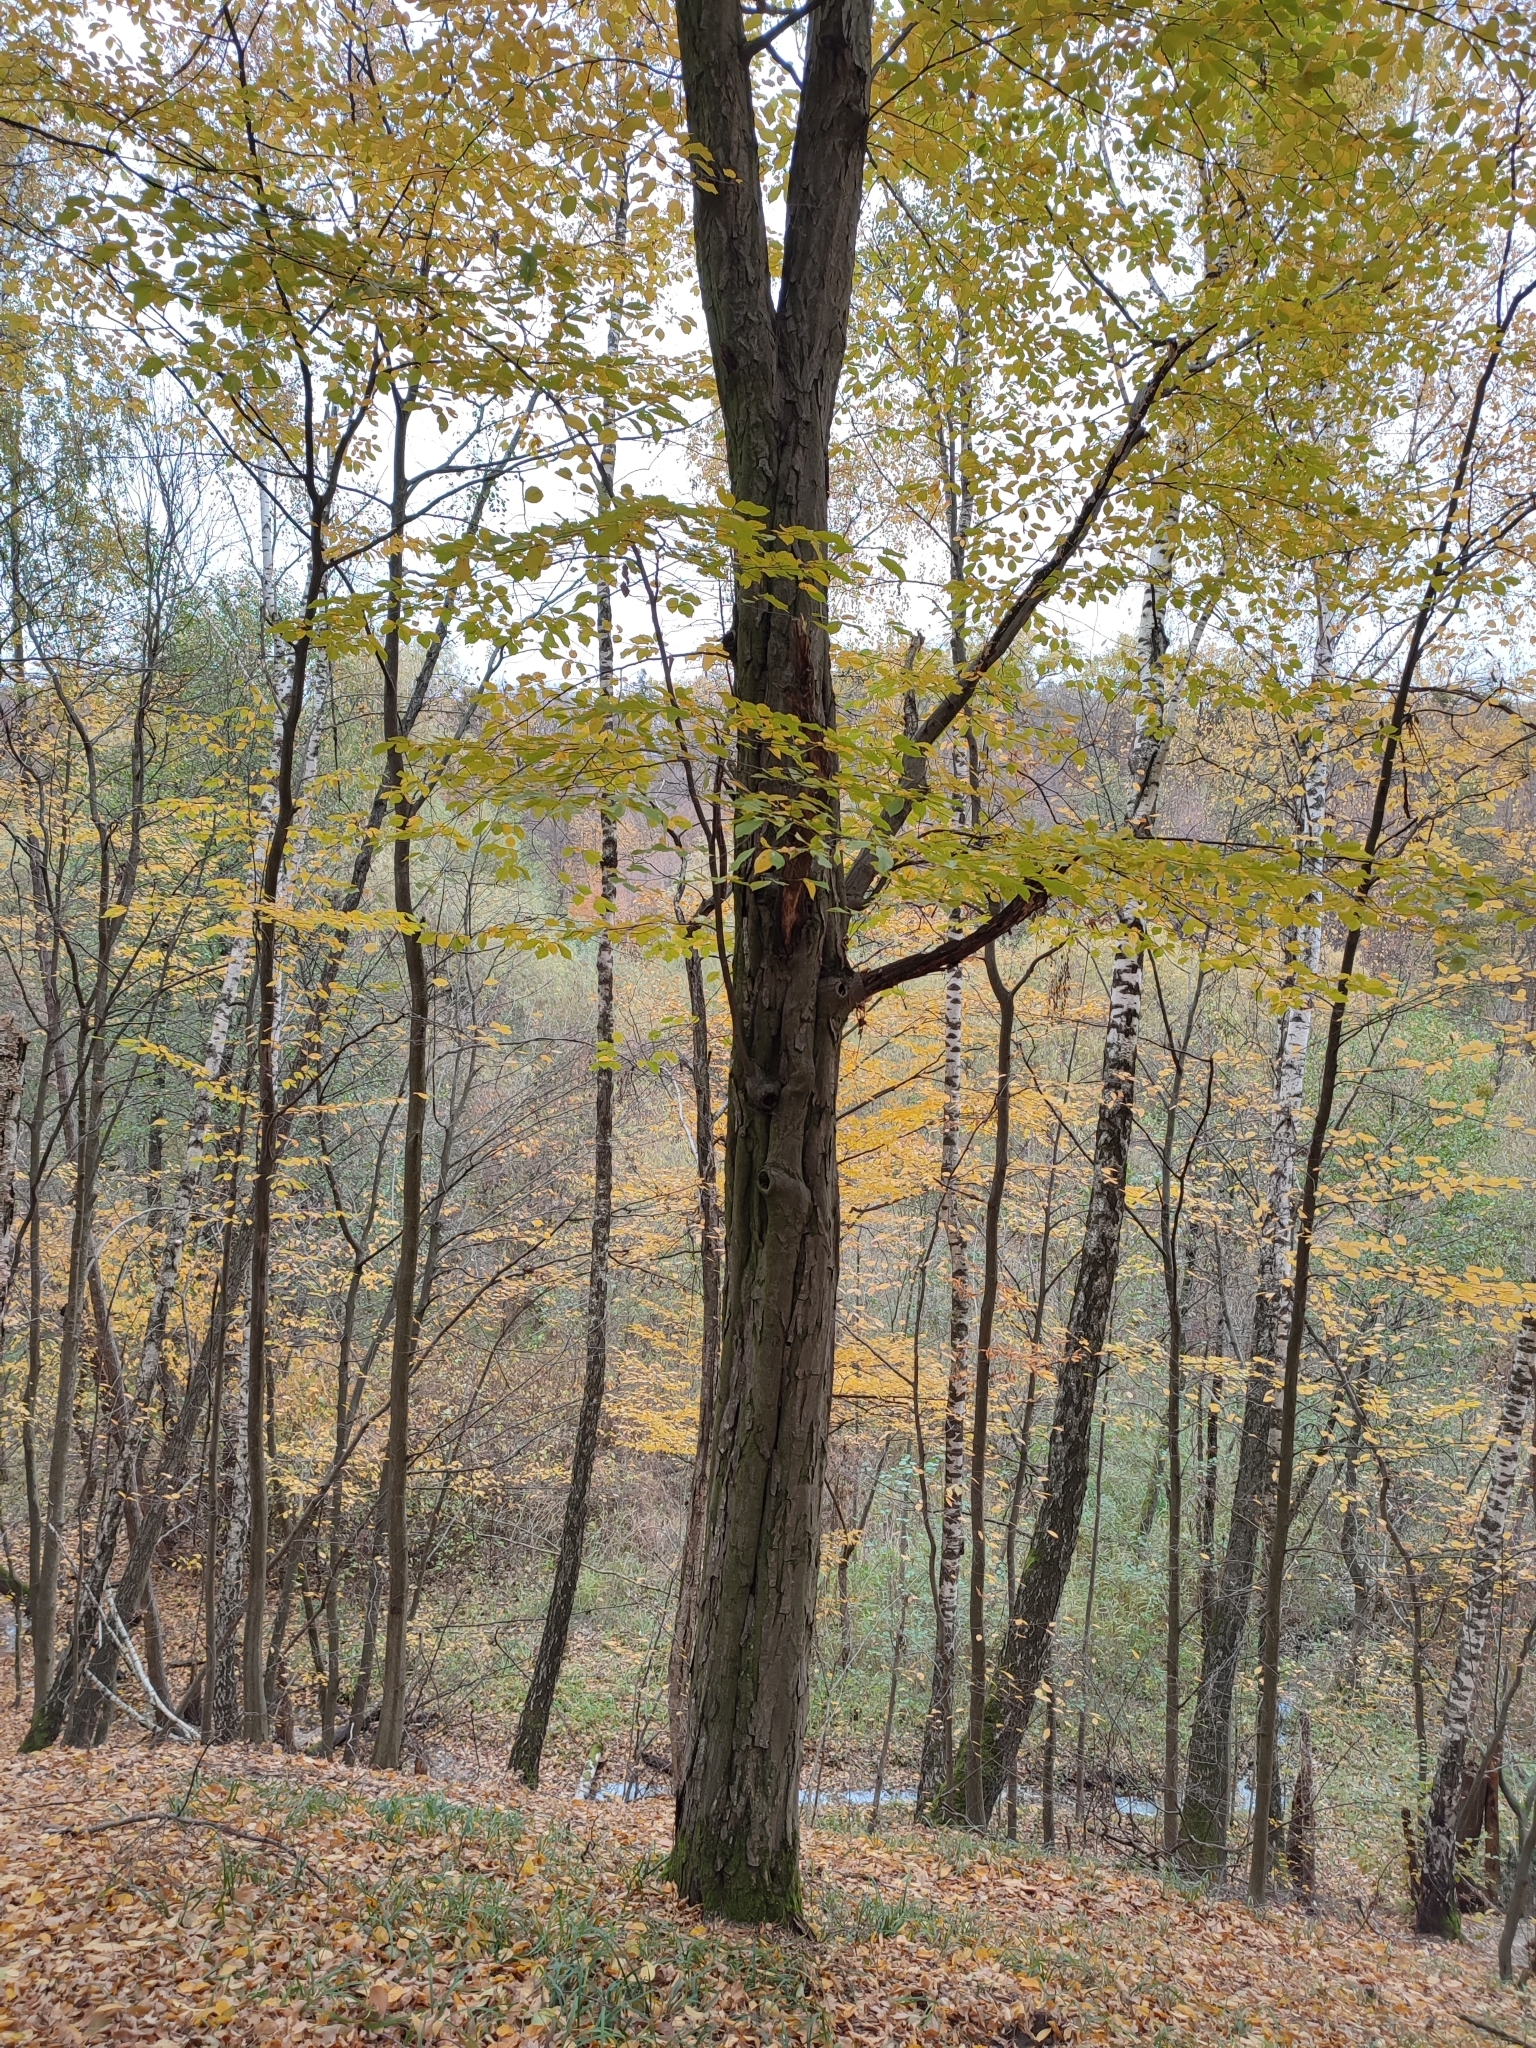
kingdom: Plantae
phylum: Tracheophyta
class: Magnoliopsida
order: Fagales
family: Betulaceae
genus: Carpinus
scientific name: Carpinus betulus
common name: Hornbeam
